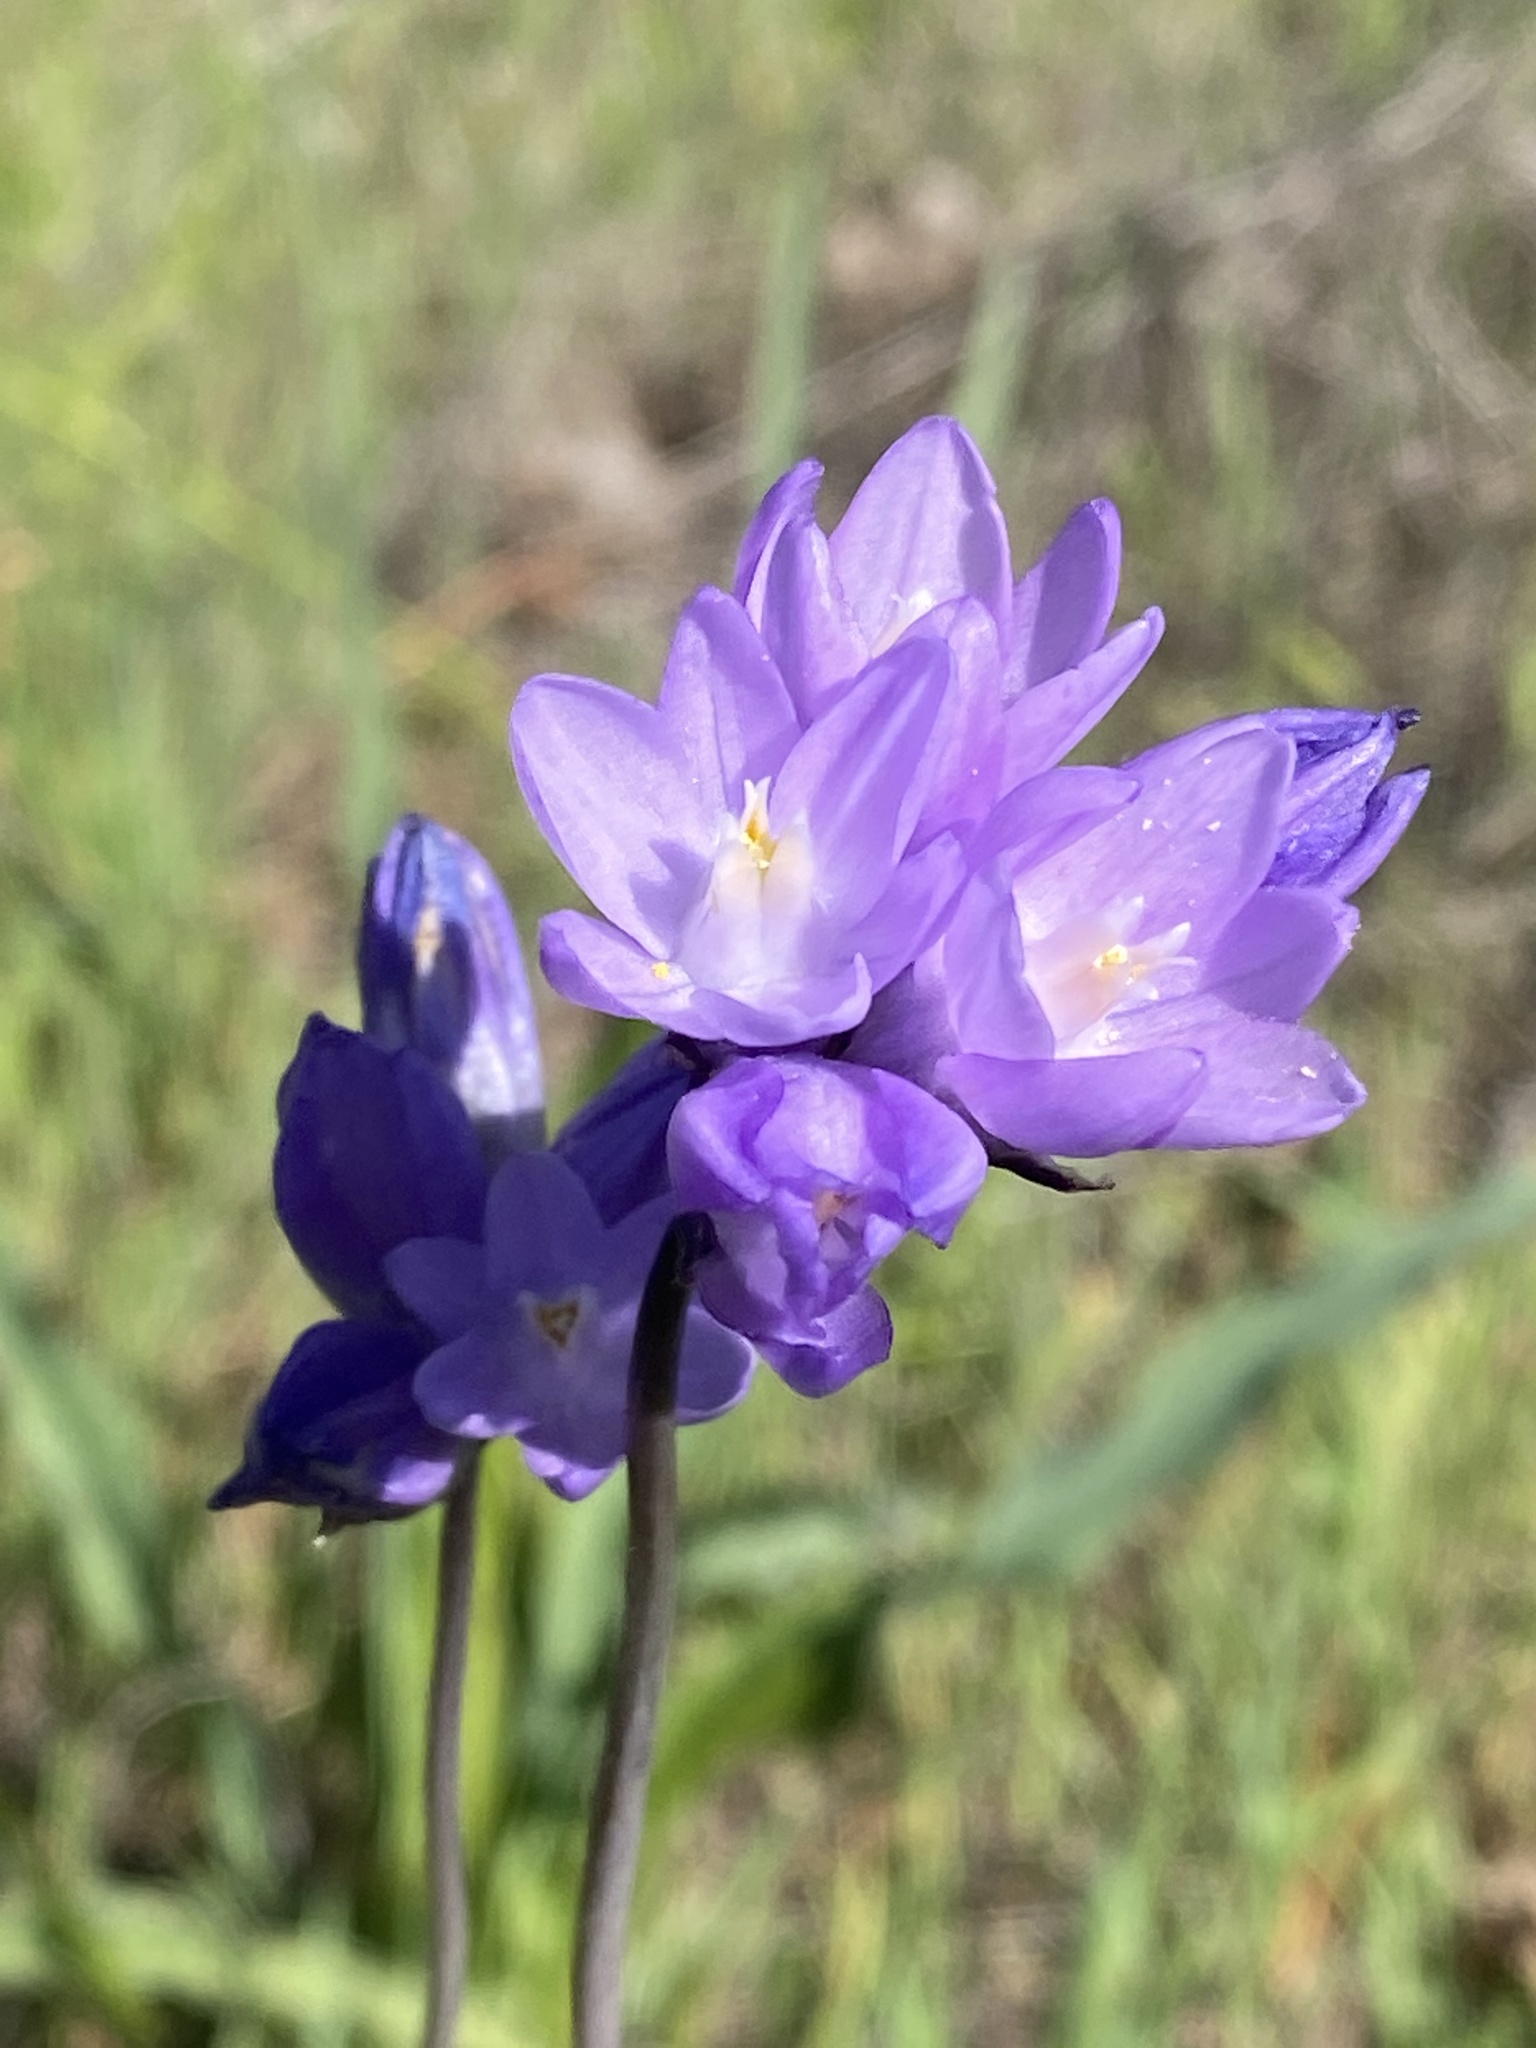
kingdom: Plantae
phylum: Tracheophyta
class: Liliopsida
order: Asparagales
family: Asparagaceae
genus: Dipterostemon
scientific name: Dipterostemon capitatus
